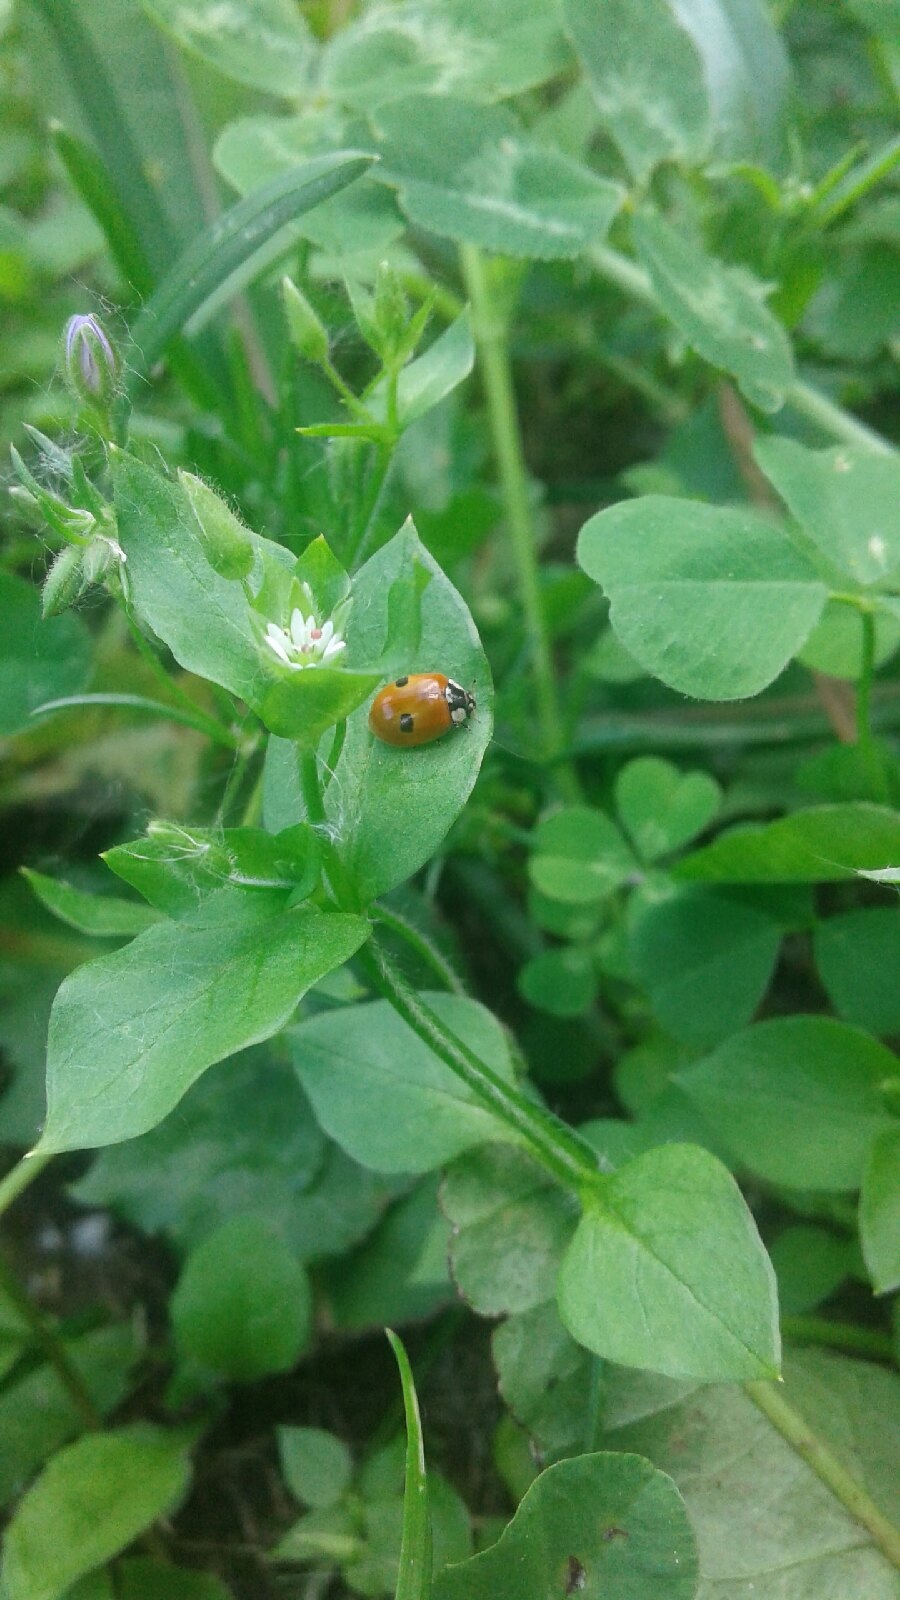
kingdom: Animalia
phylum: Arthropoda
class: Insecta
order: Coleoptera
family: Coccinellidae
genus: Adalia
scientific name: Adalia bipunctata
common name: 2-spot ladybird
